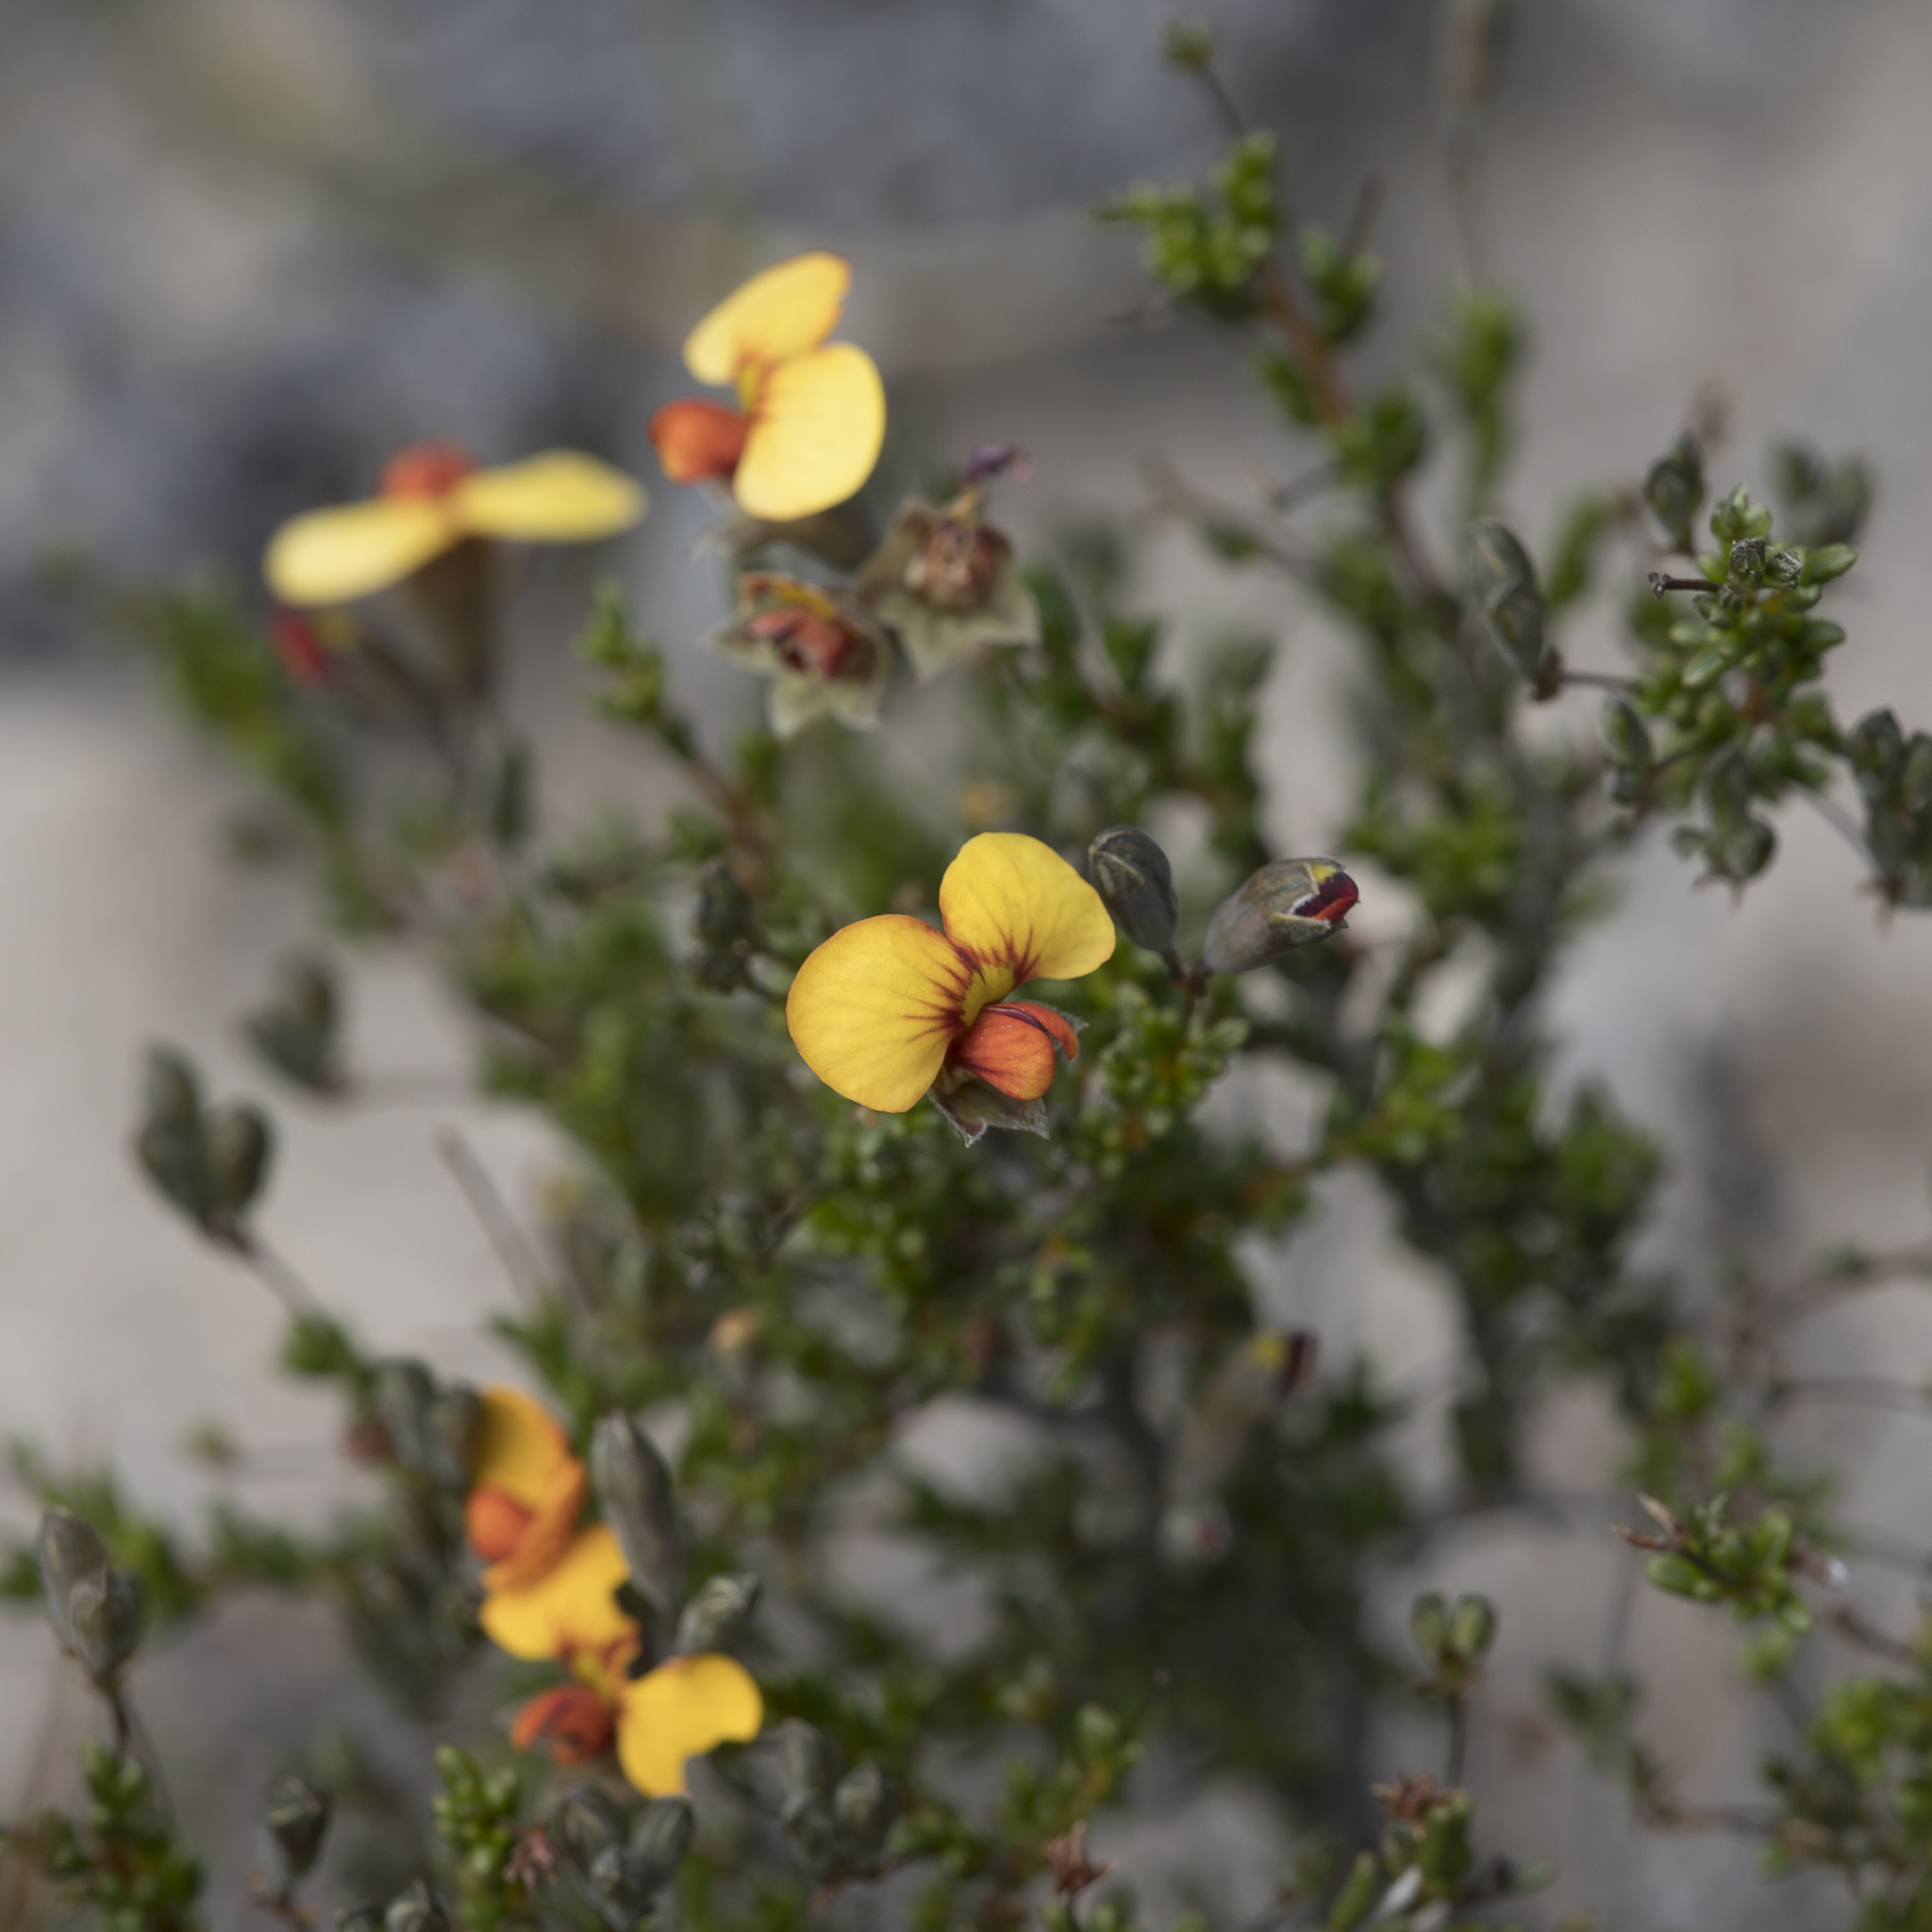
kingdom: Plantae
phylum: Tracheophyta
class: Magnoliopsida
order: Fabales
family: Fabaceae
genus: Dillwynia
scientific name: Dillwynia hispida
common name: Red parrot-pea
